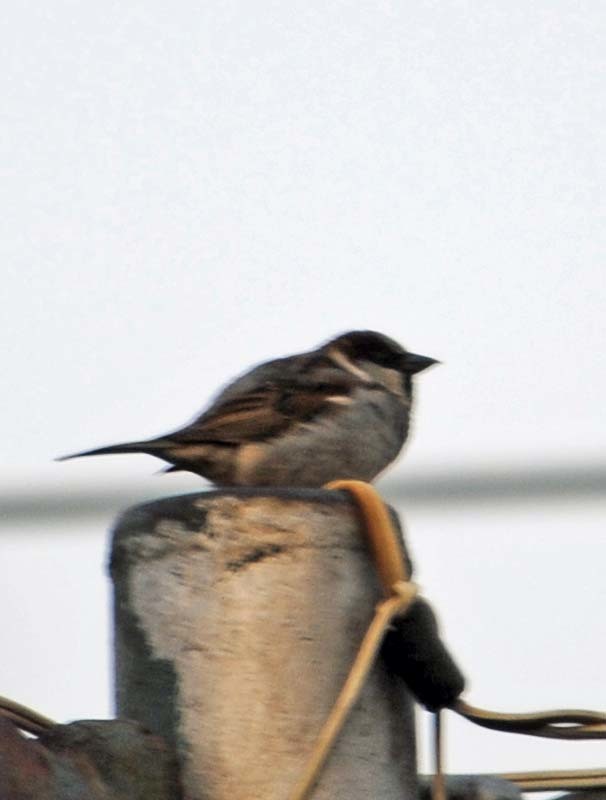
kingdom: Animalia
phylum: Chordata
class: Aves
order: Passeriformes
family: Passeridae
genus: Passer
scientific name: Passer domesticus
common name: House sparrow
